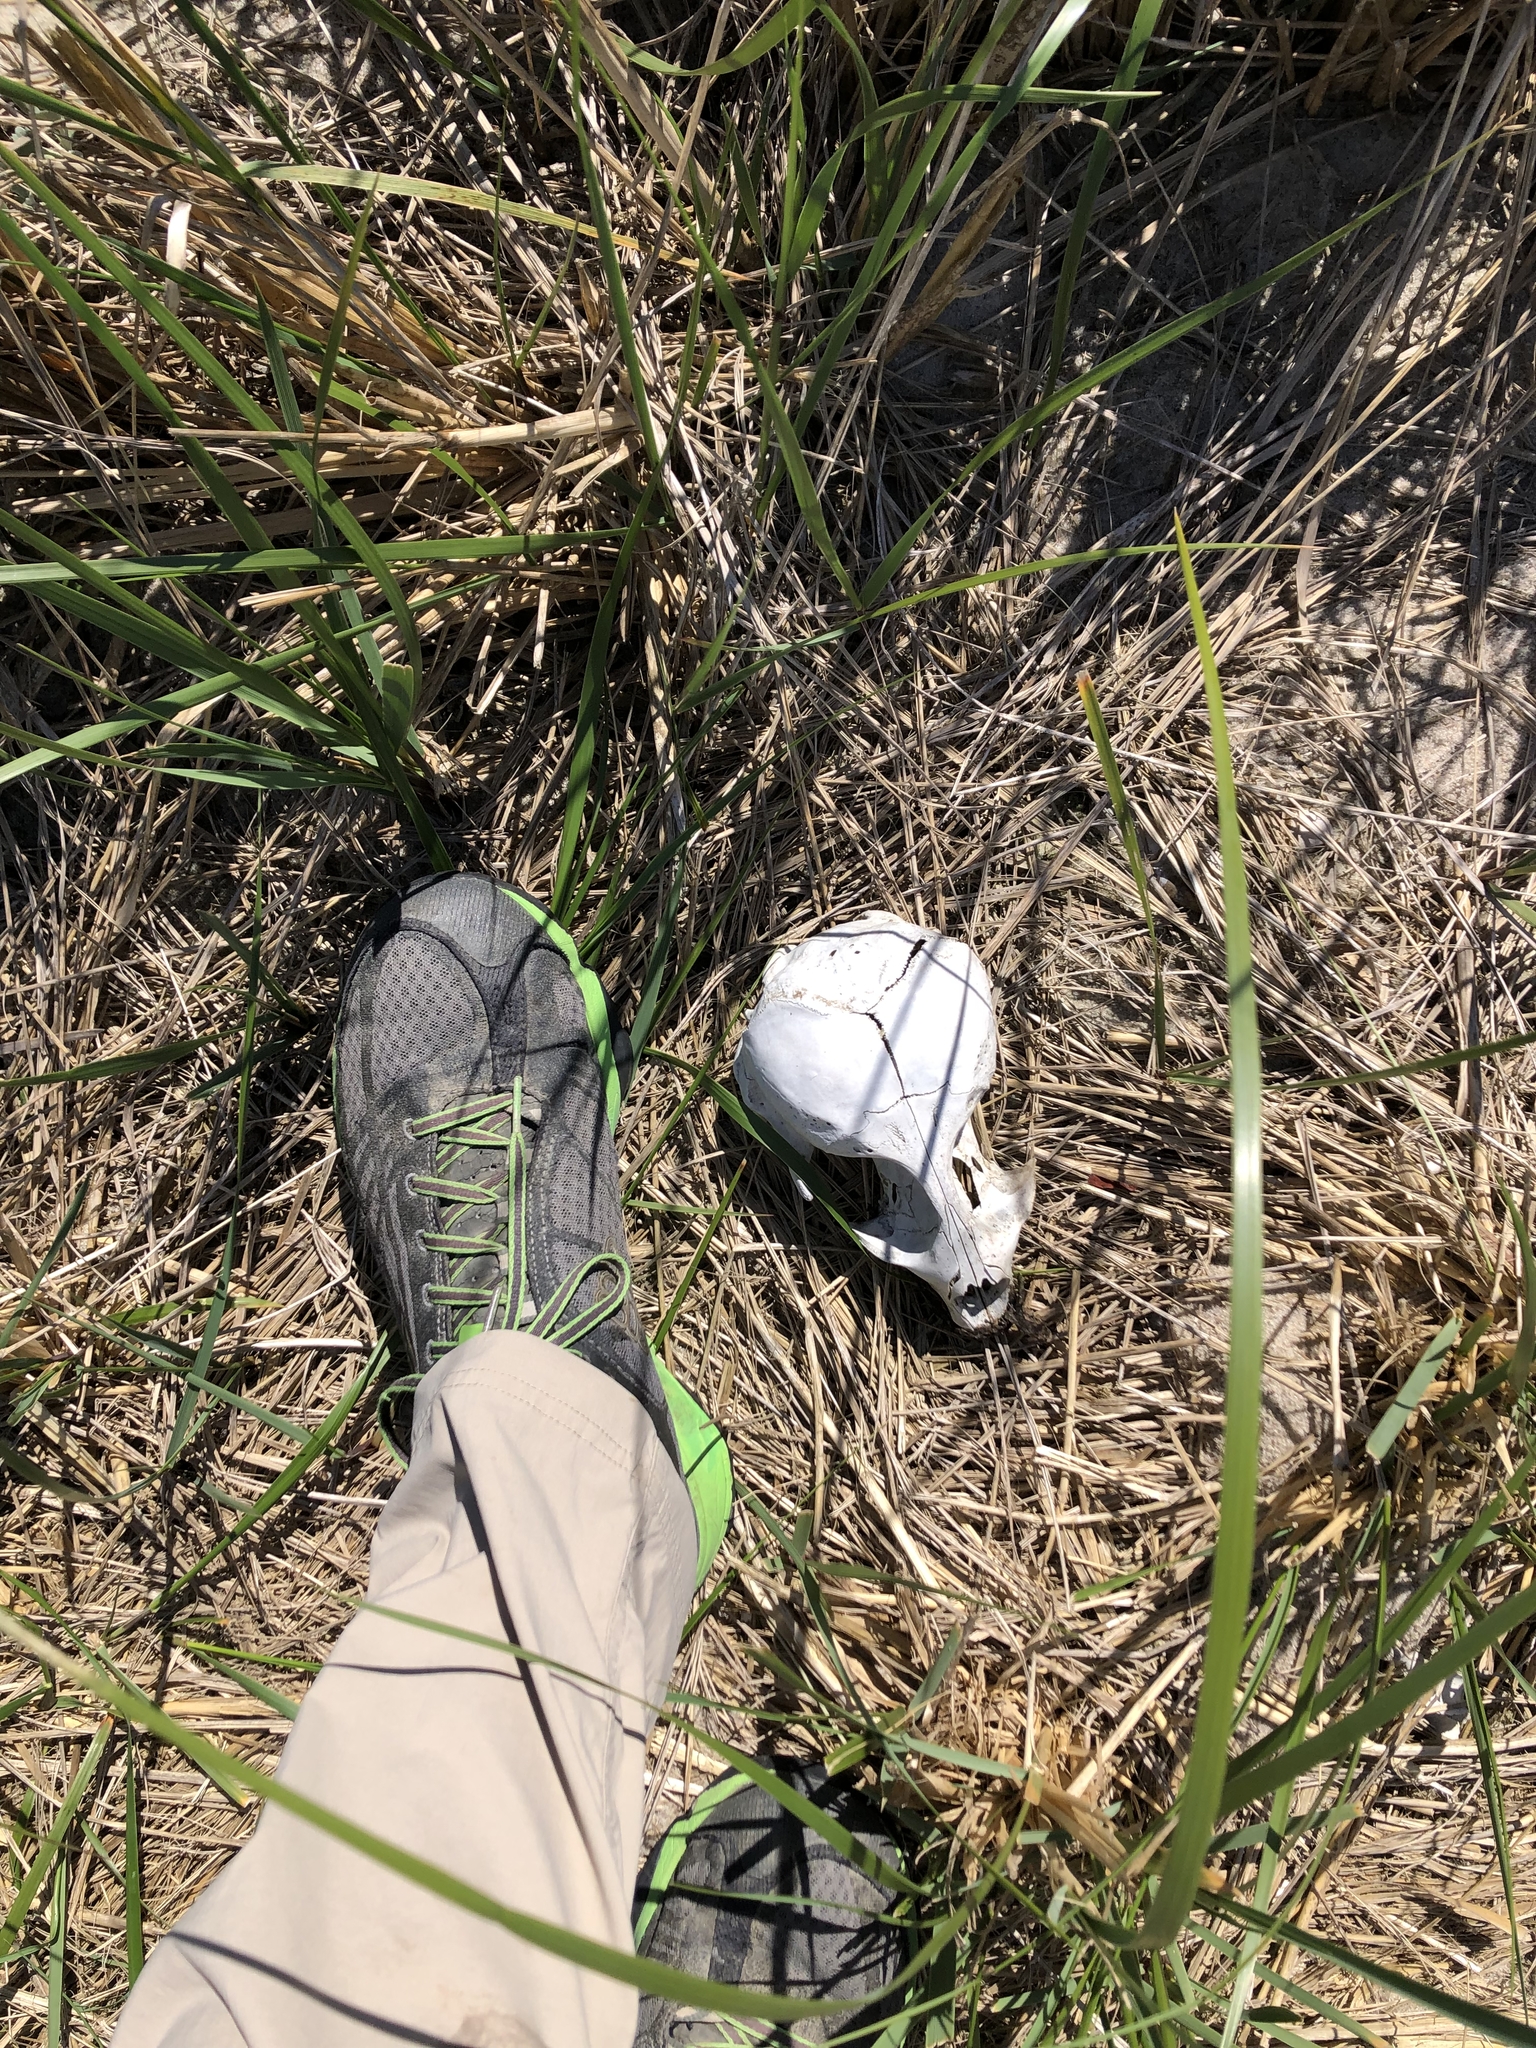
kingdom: Animalia
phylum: Chordata
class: Mammalia
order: Carnivora
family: Phocidae
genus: Halichoerus
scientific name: Halichoerus grypus
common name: Grey seal
